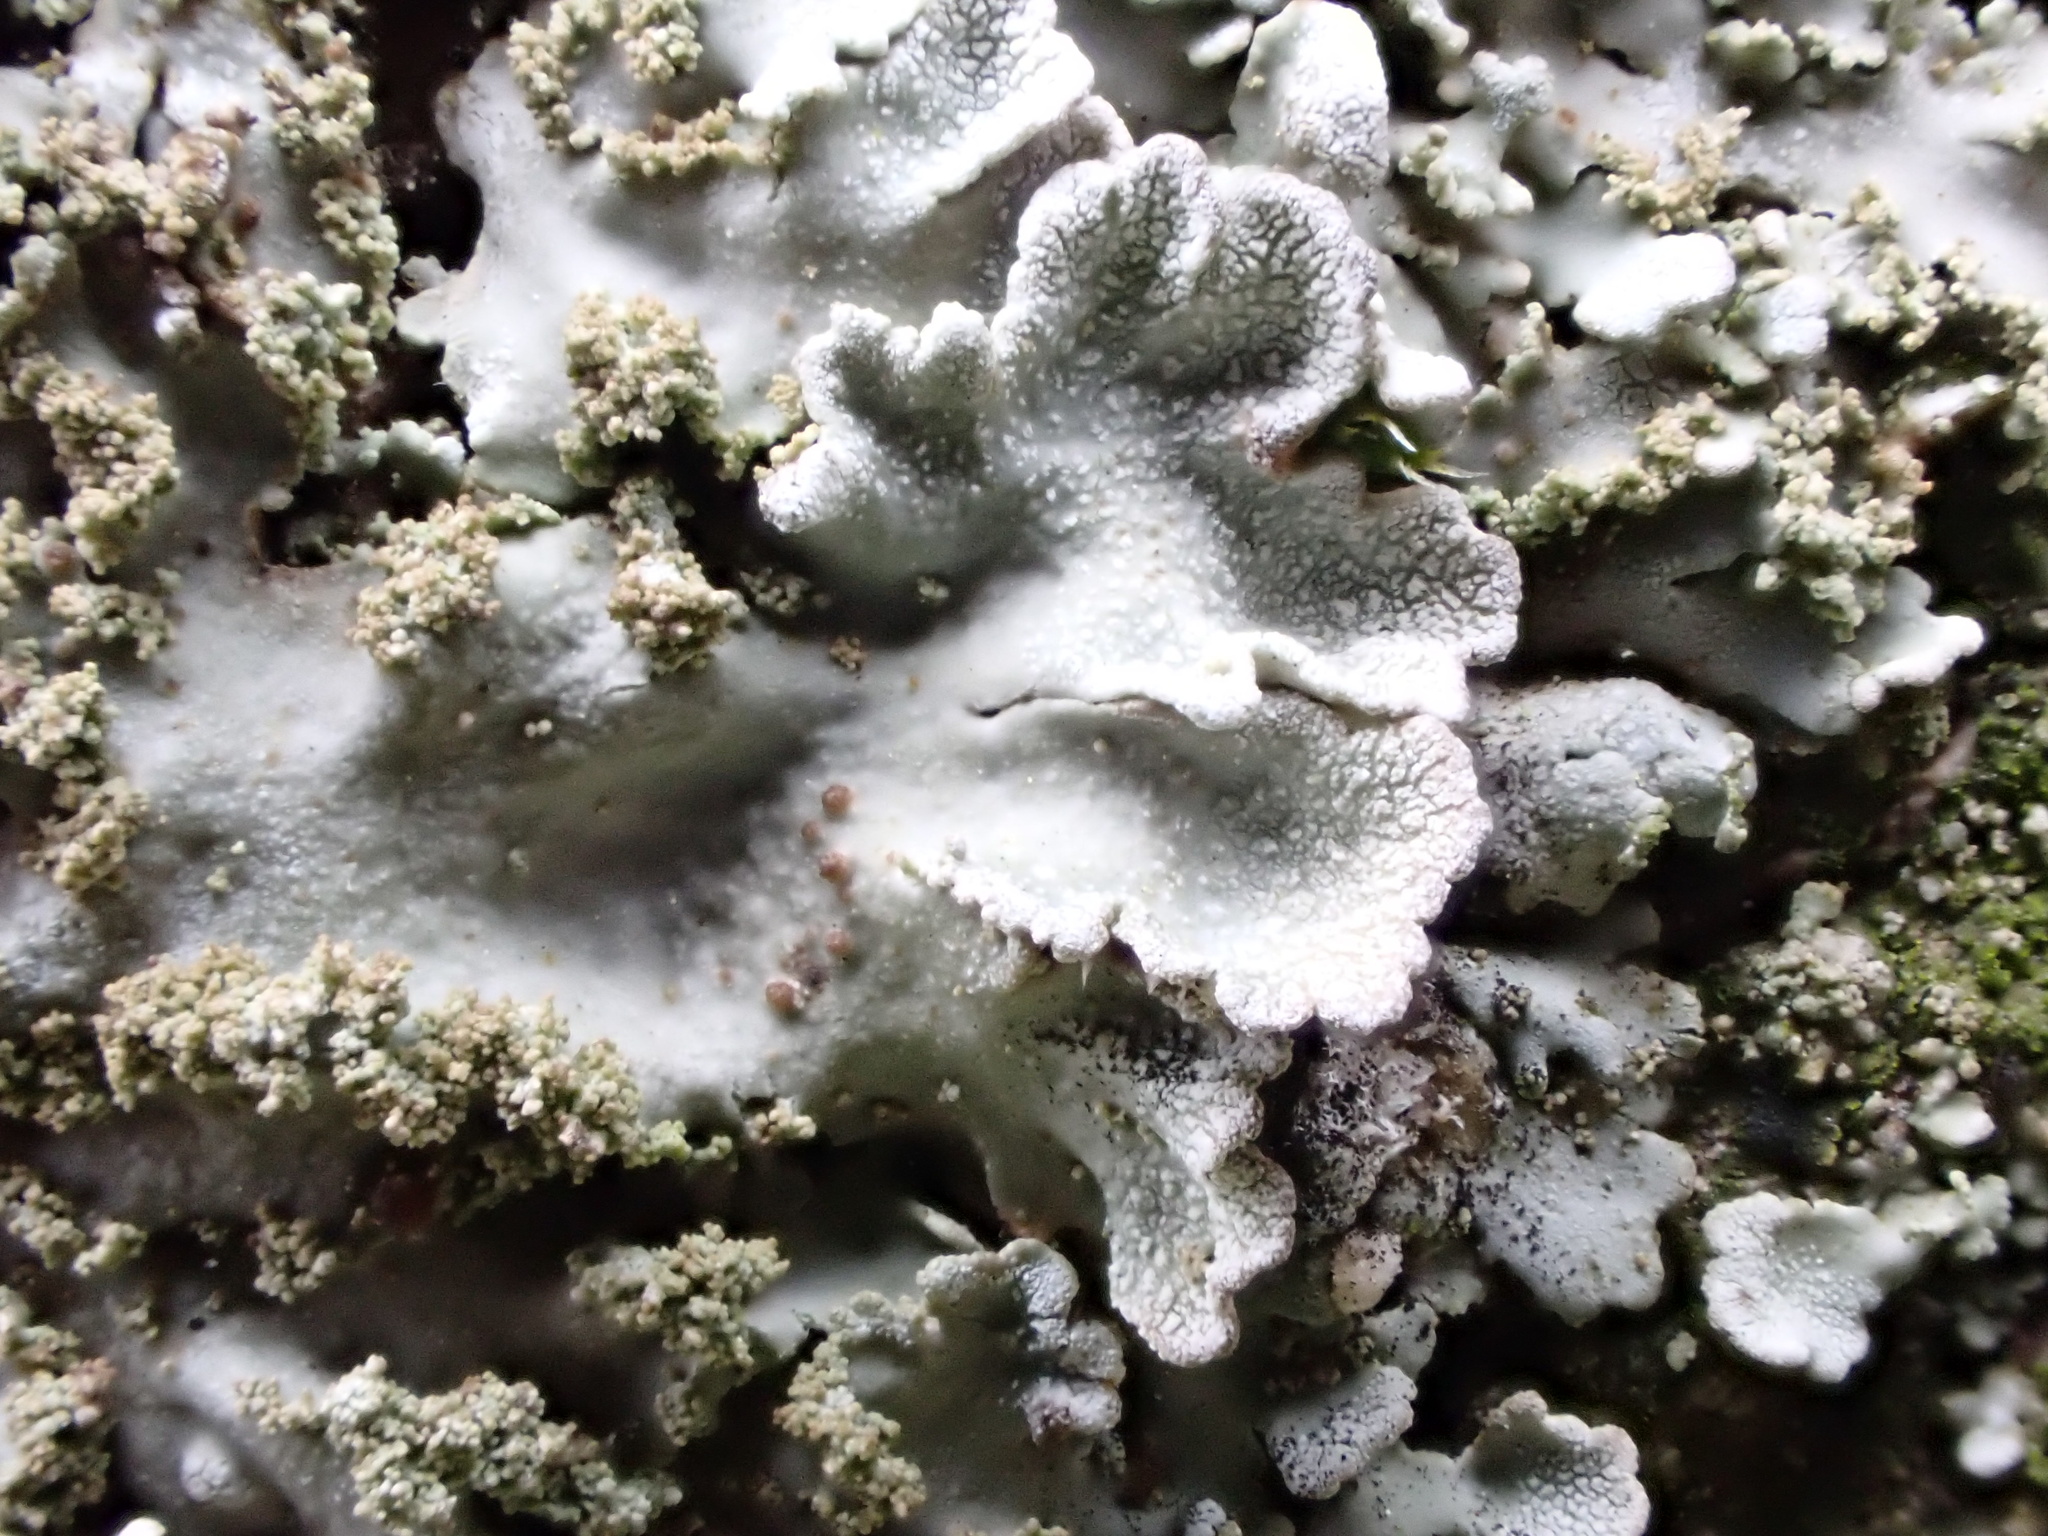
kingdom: Fungi
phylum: Ascomycota
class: Lecanoromycetes
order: Caliciales
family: Physciaceae
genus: Poeltonia
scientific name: Poeltonia grisea
